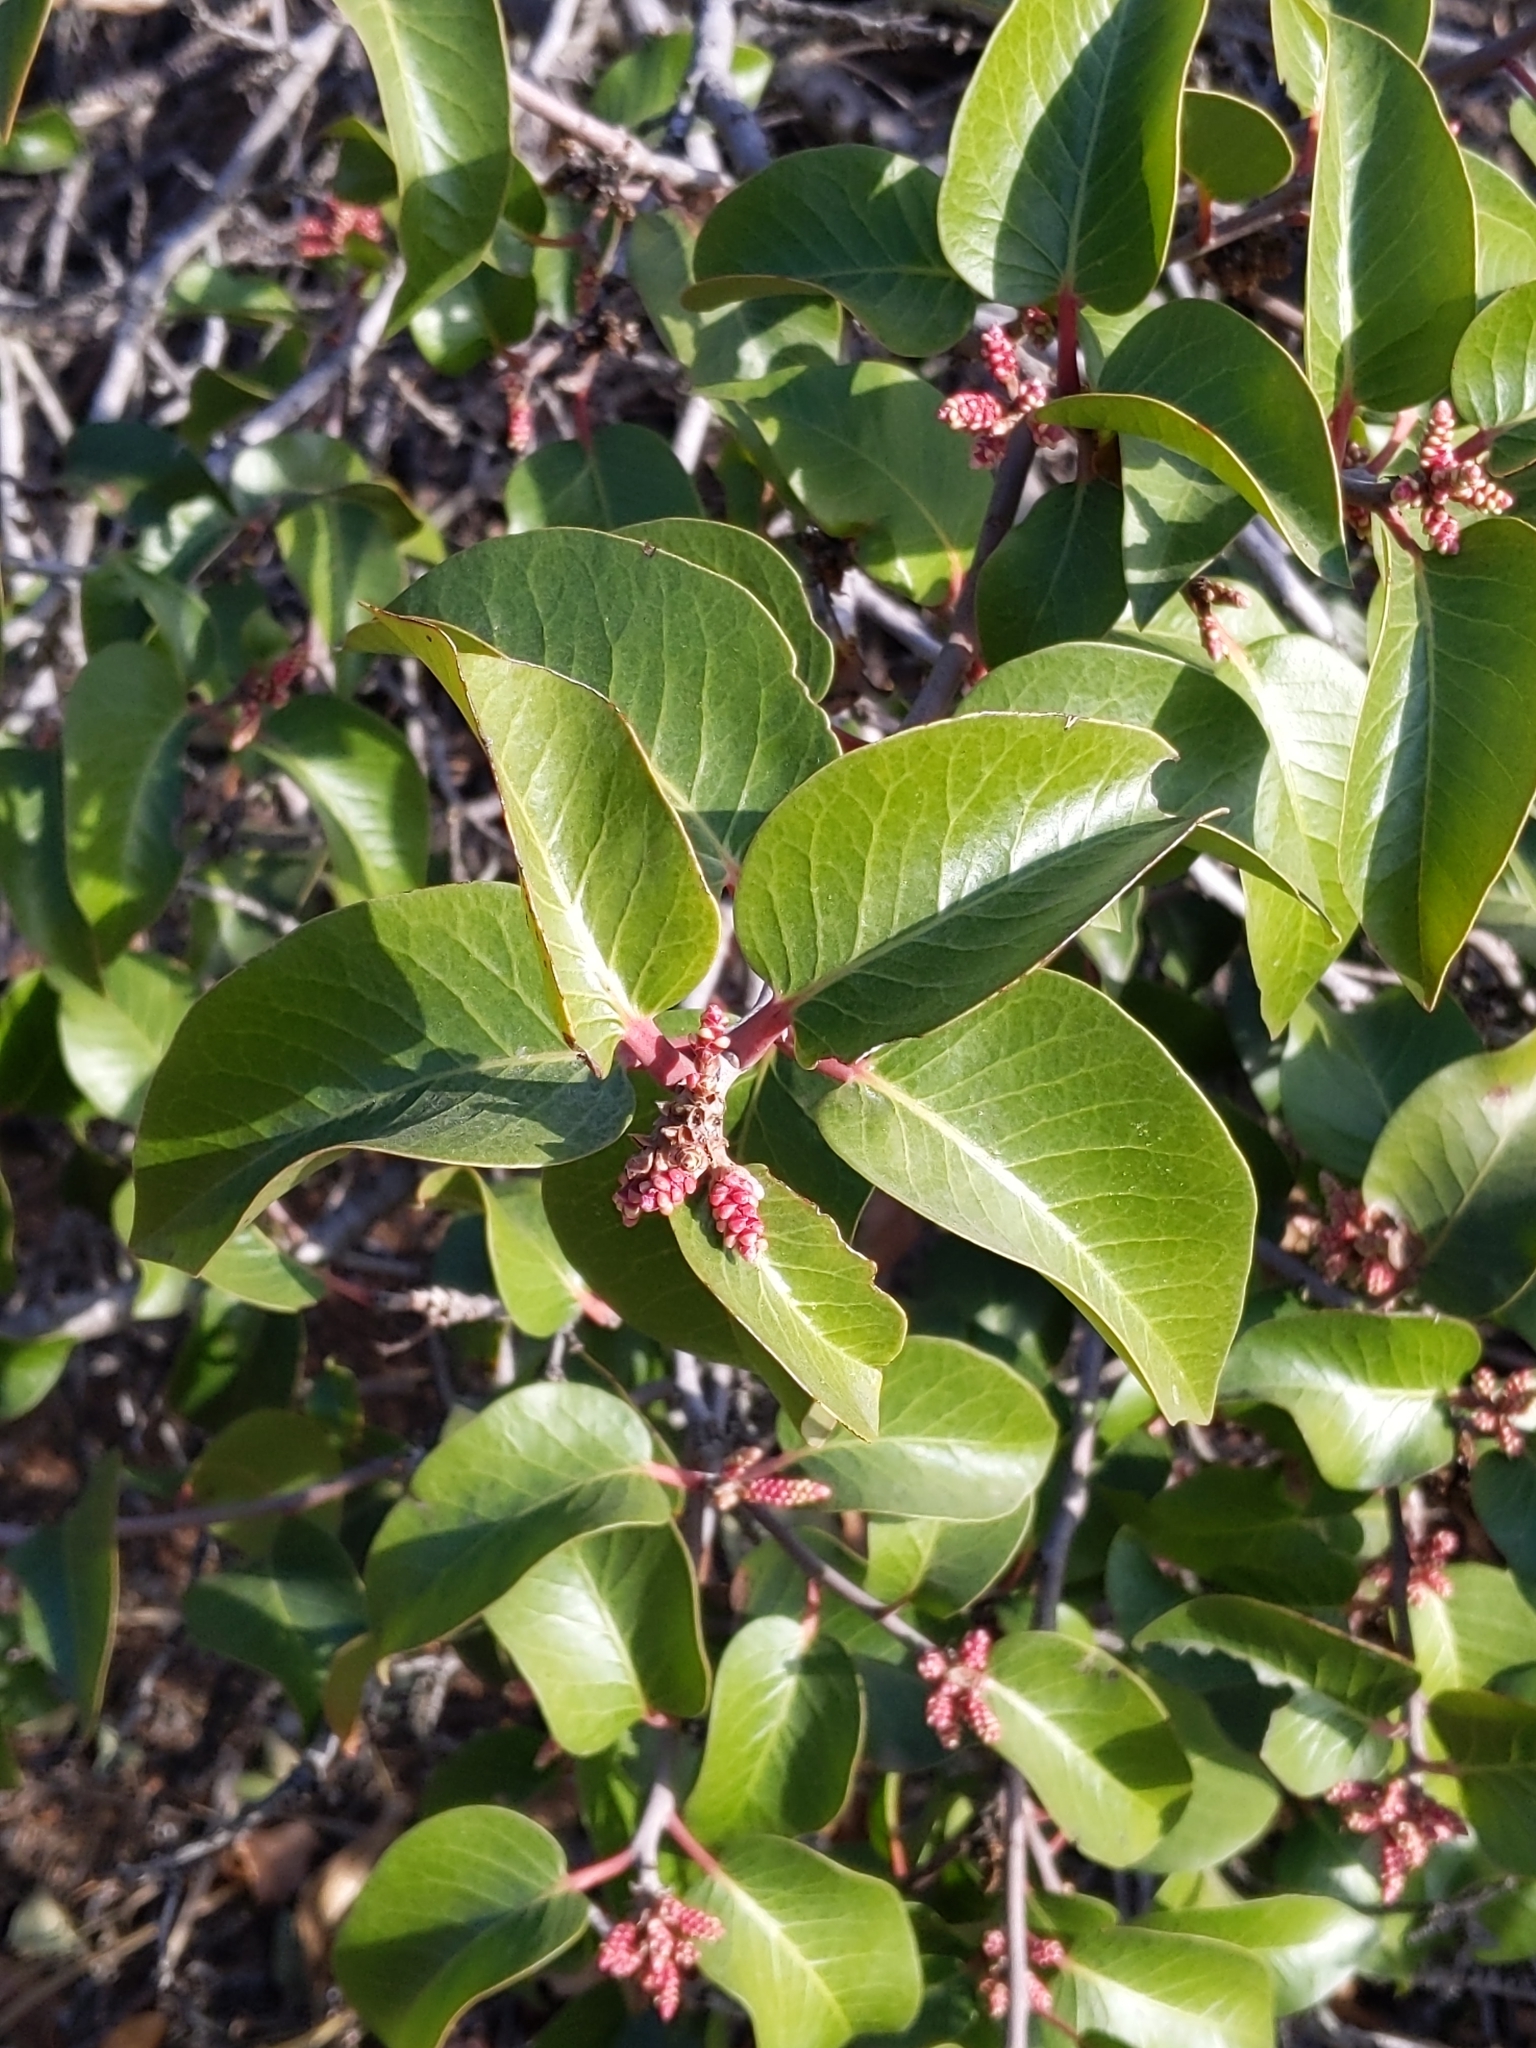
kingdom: Plantae
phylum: Tracheophyta
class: Magnoliopsida
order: Sapindales
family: Anacardiaceae
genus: Rhus
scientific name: Rhus ovata
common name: Sugar sumac
